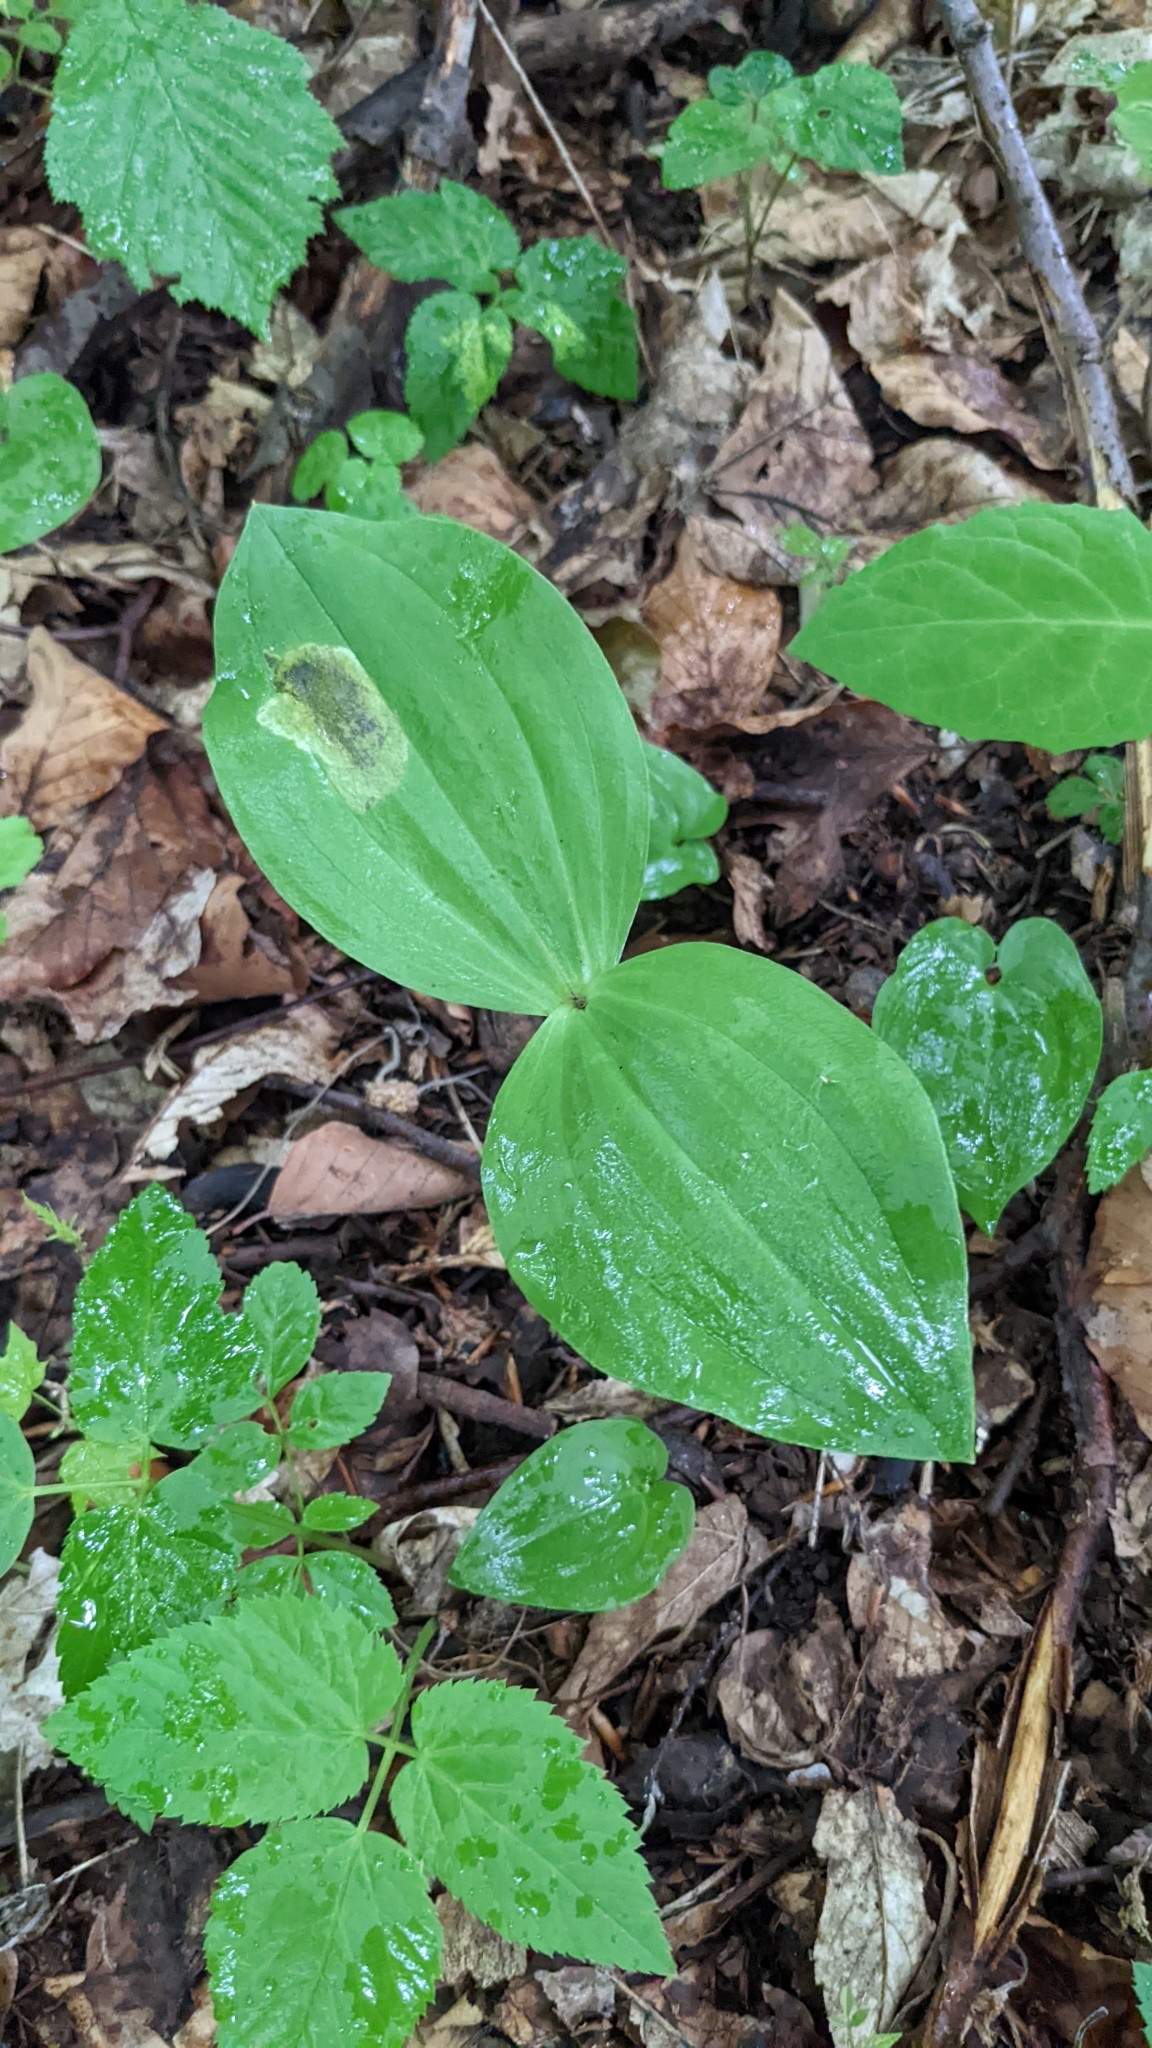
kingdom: Plantae
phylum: Tracheophyta
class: Liliopsida
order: Asparagales
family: Orchidaceae
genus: Neottia
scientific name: Neottia ovata
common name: Common twayblade
